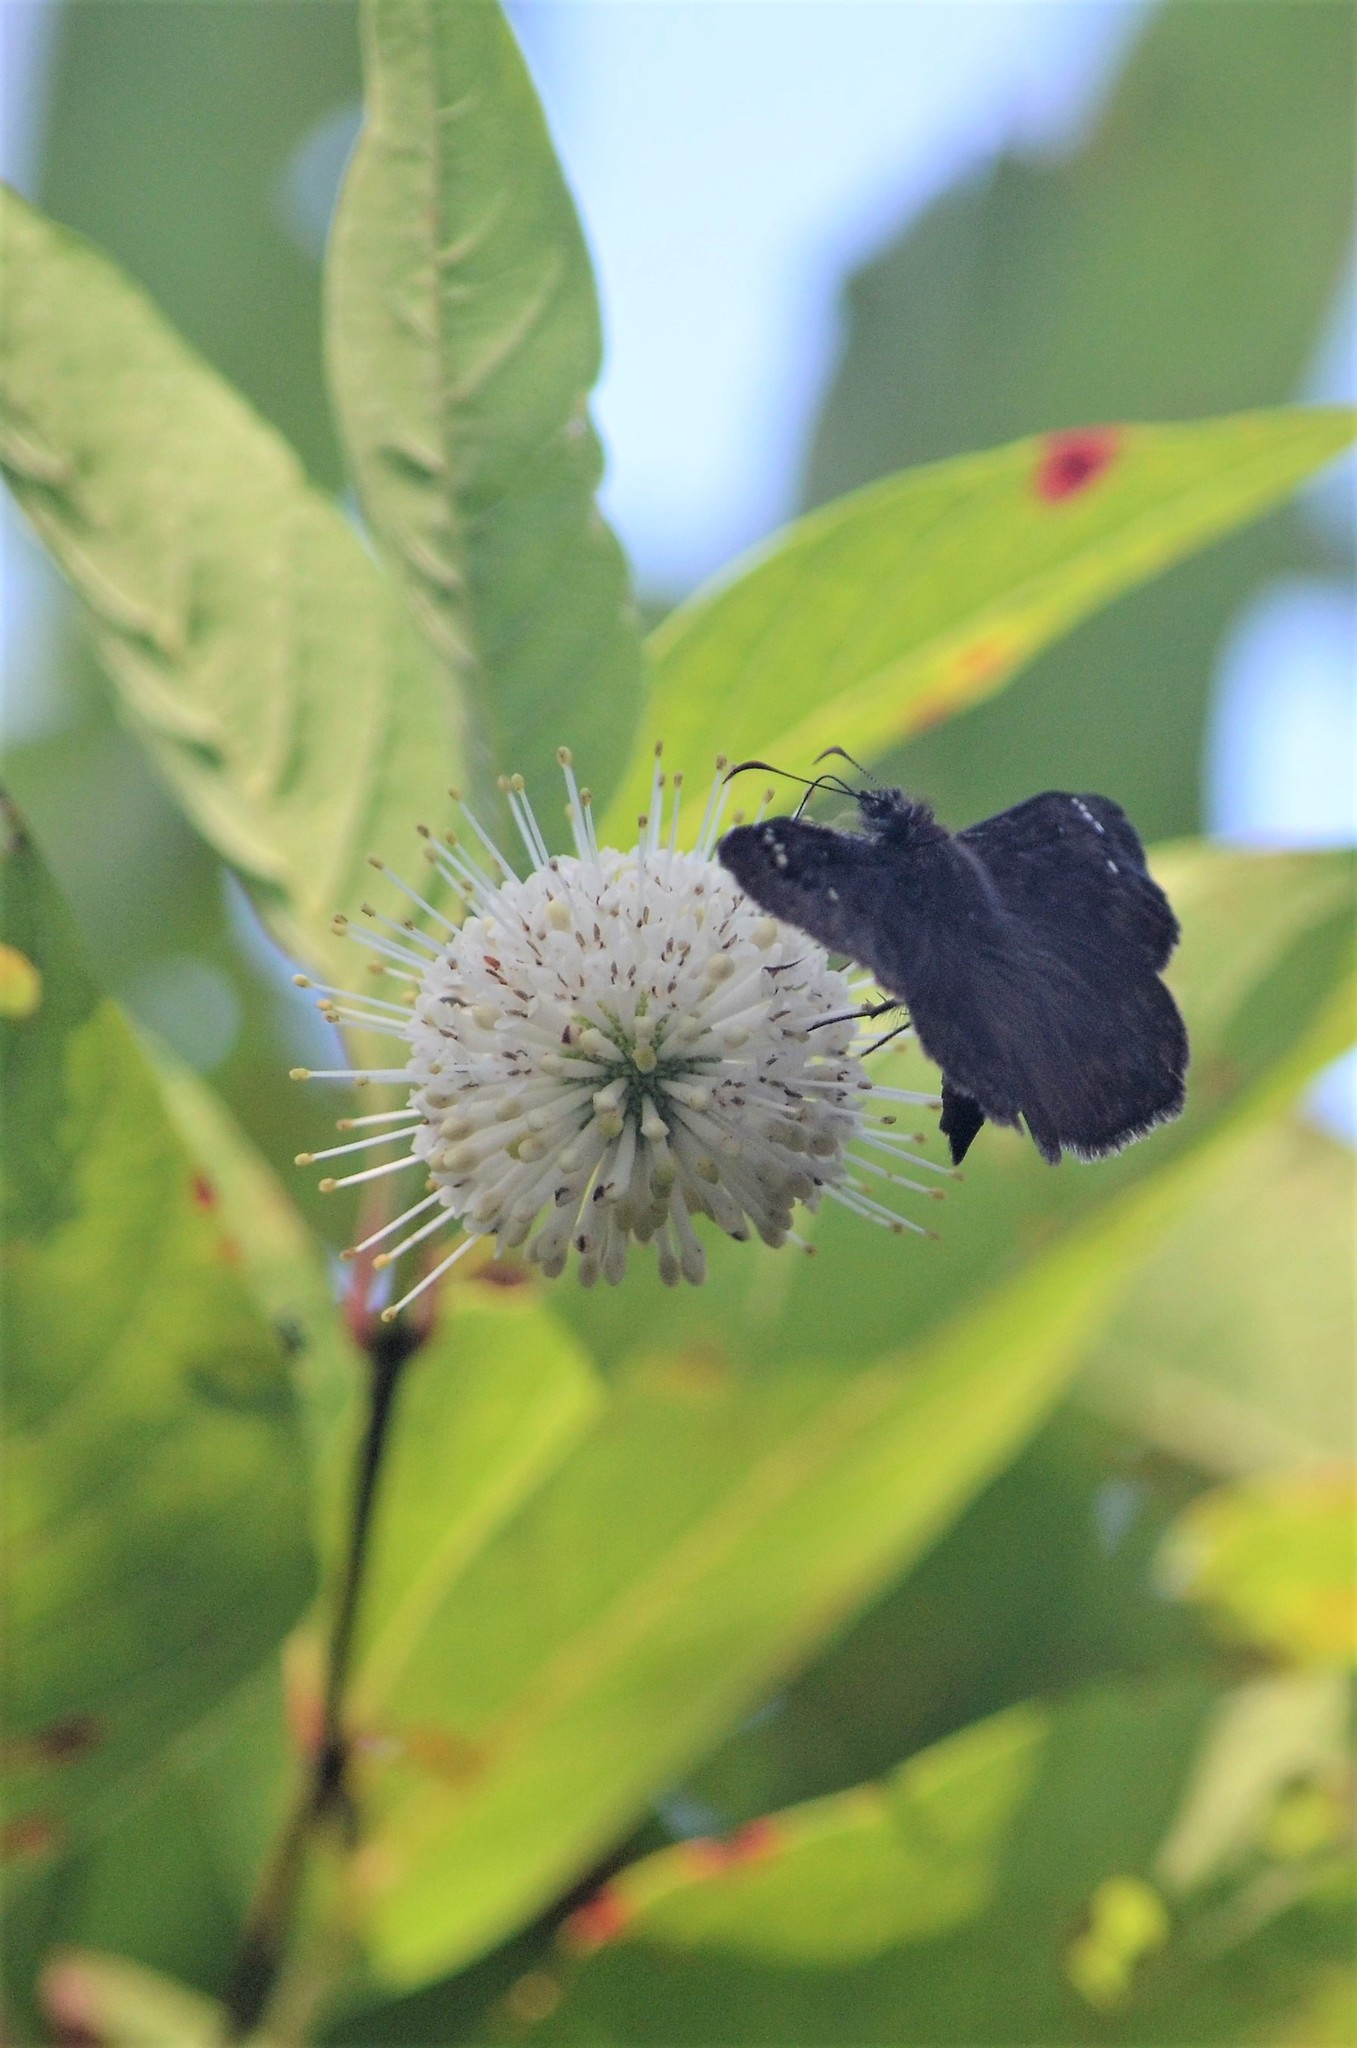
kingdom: Plantae
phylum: Tracheophyta
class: Magnoliopsida
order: Gentianales
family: Rubiaceae
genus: Cephalanthus
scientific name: Cephalanthus occidentalis
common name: Button-willow
